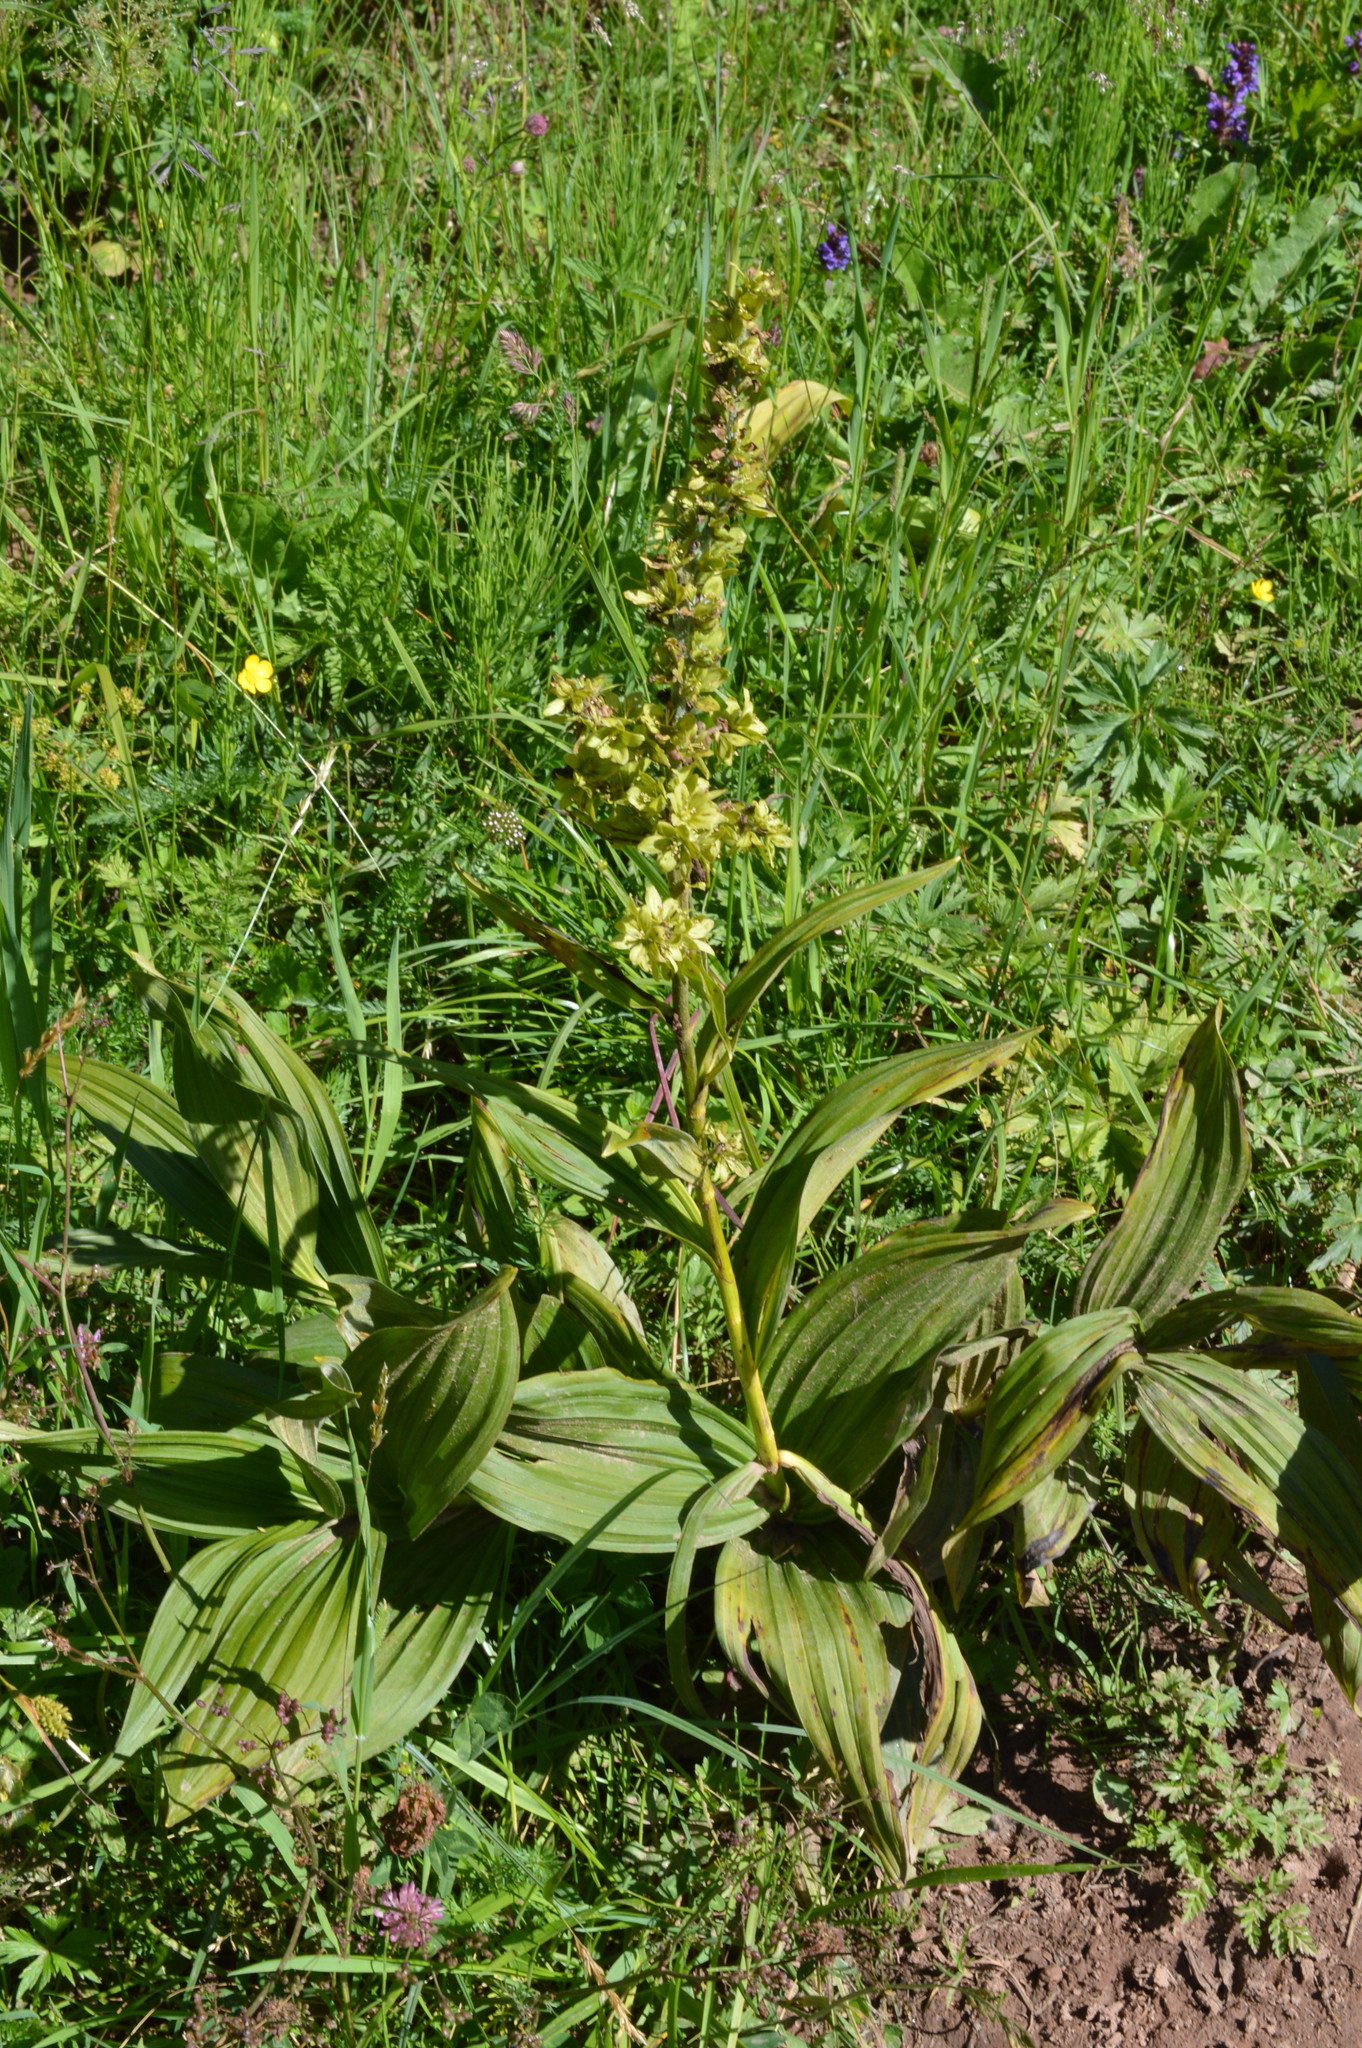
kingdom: Plantae
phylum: Tracheophyta
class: Liliopsida
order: Liliales
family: Melanthiaceae
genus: Veratrum
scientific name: Veratrum lobelianum
